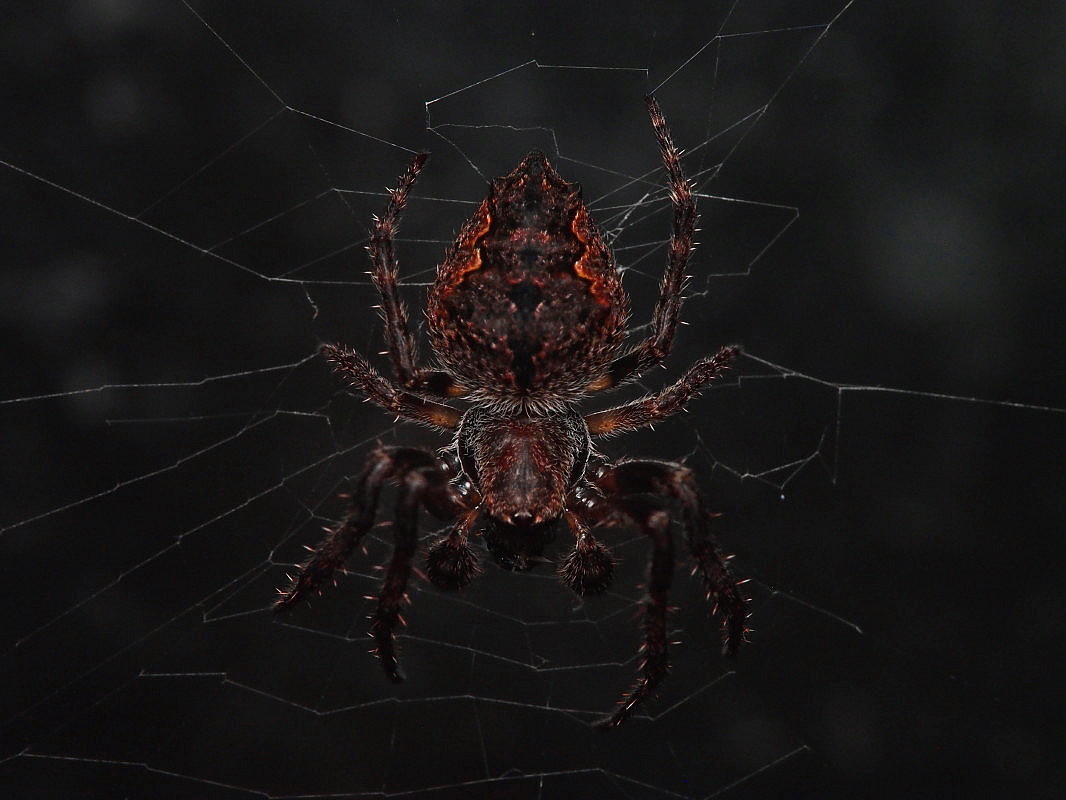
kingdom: Animalia
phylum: Arthropoda
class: Arachnida
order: Araneae
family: Araneidae
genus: Eriophora
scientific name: Eriophora pustulosa
